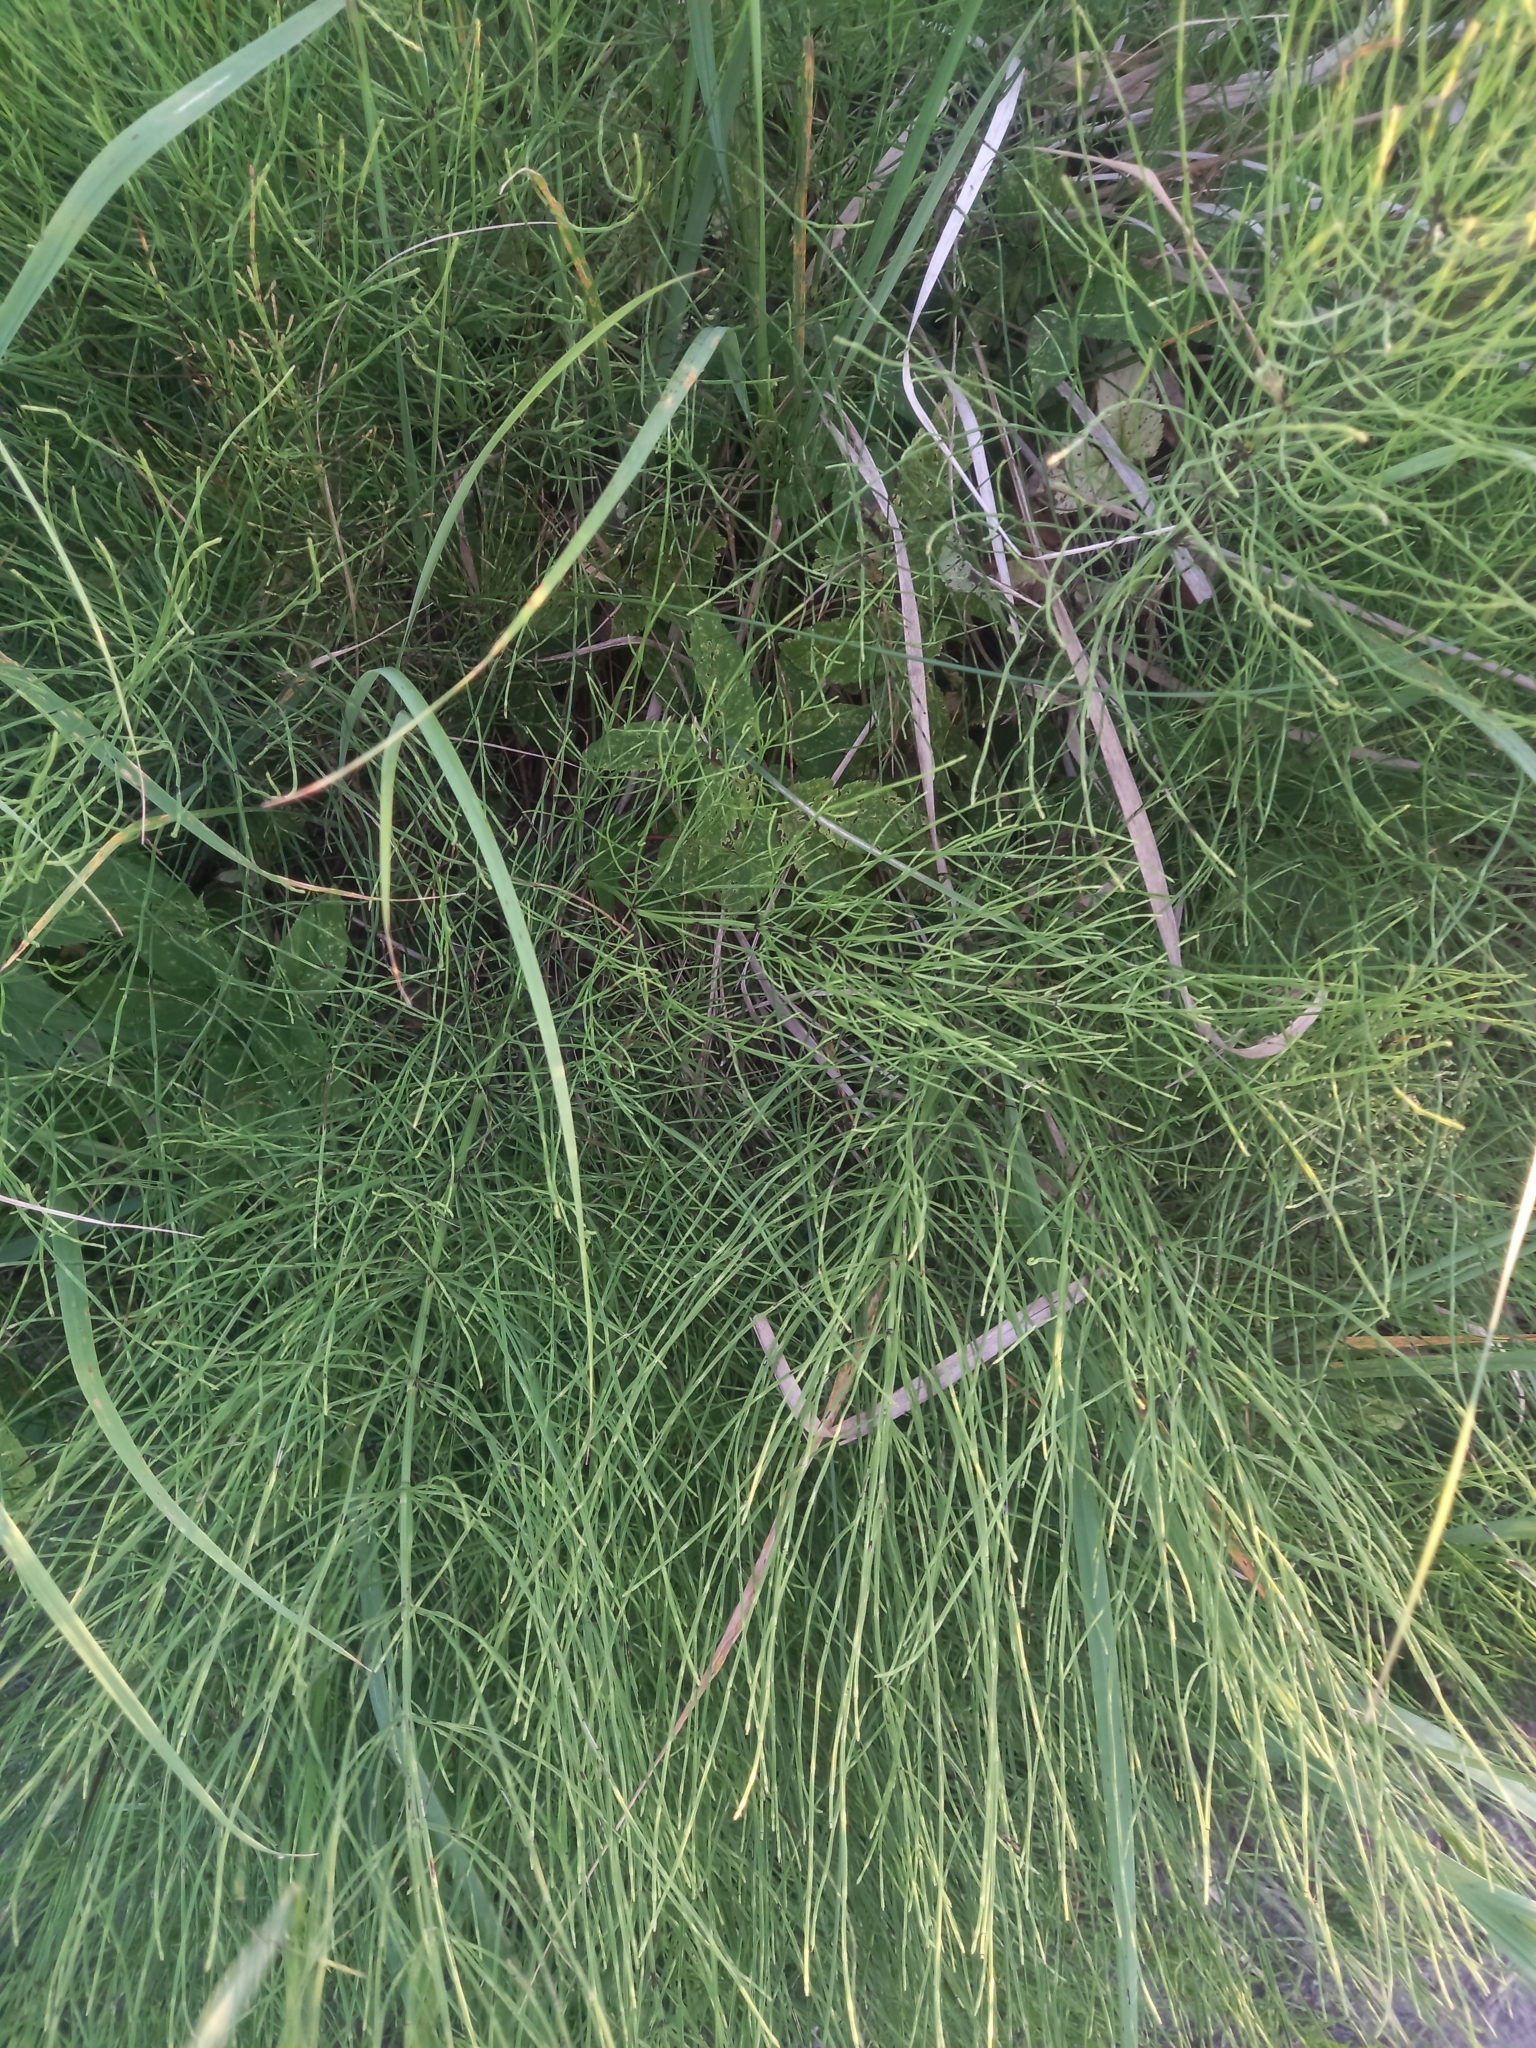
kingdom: Plantae
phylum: Tracheophyta
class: Polypodiopsida
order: Equisetales
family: Equisetaceae
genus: Equisetum
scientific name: Equisetum arvense
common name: Field horsetail
